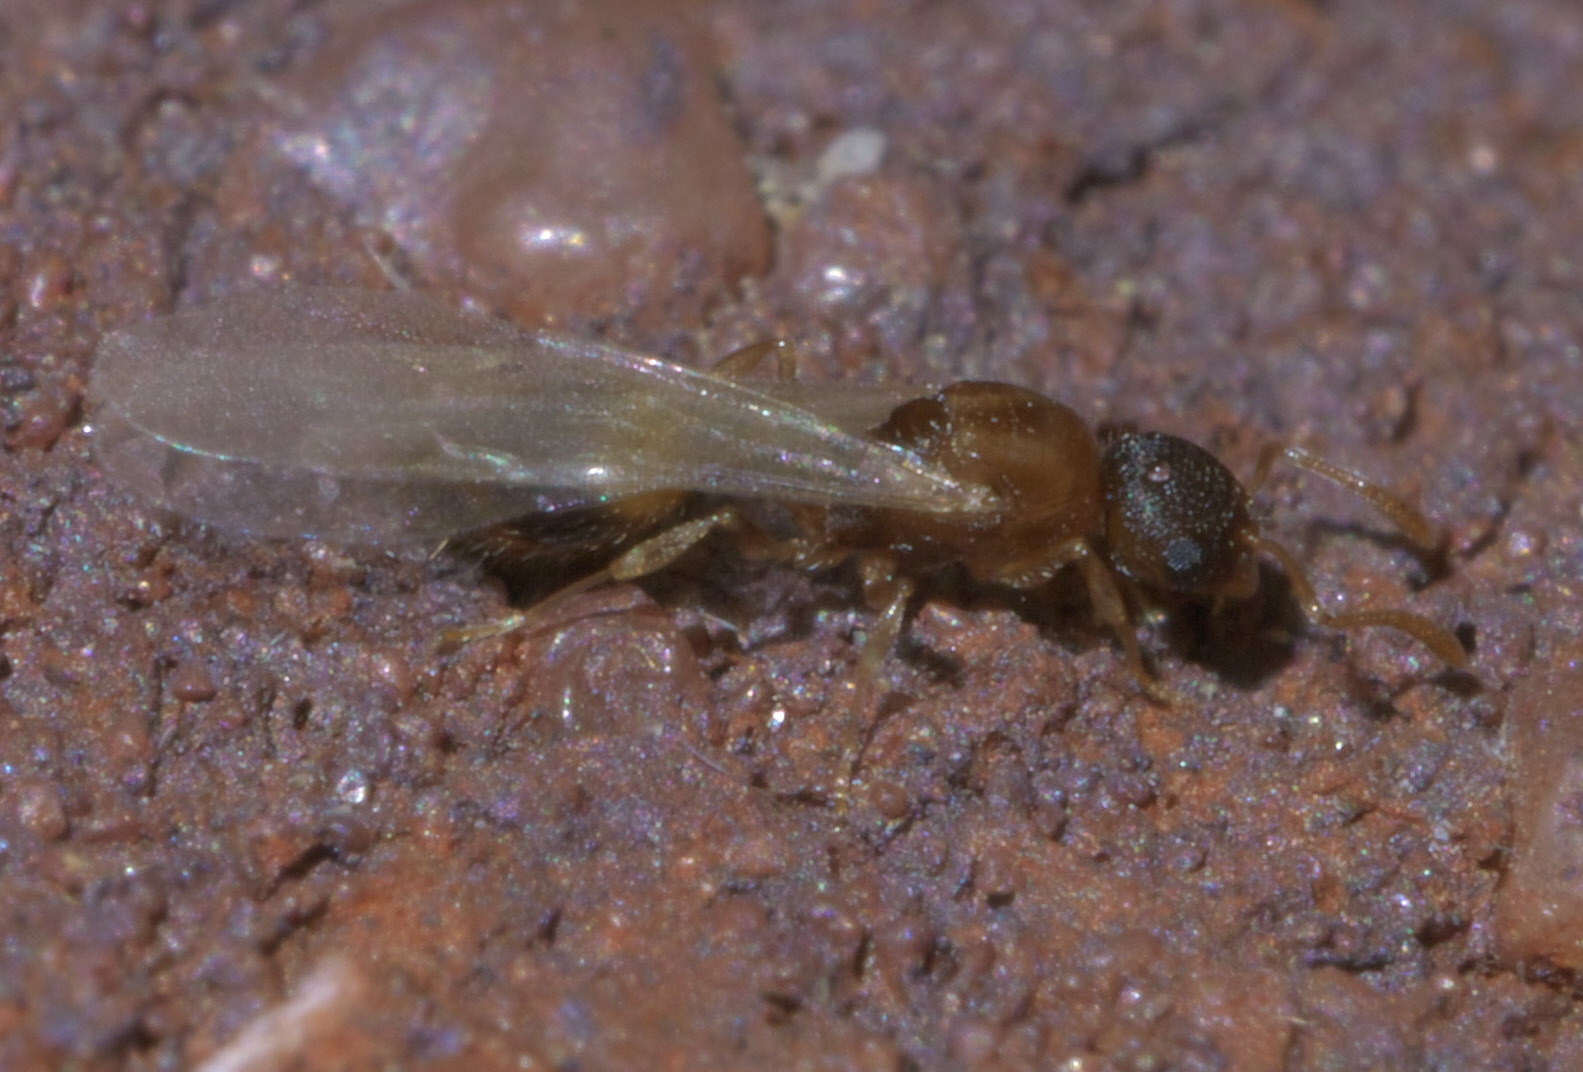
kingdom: Animalia
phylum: Arthropoda
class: Insecta
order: Hymenoptera
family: Formicidae
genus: Temnothorax
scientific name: Temnothorax curvispinosus
